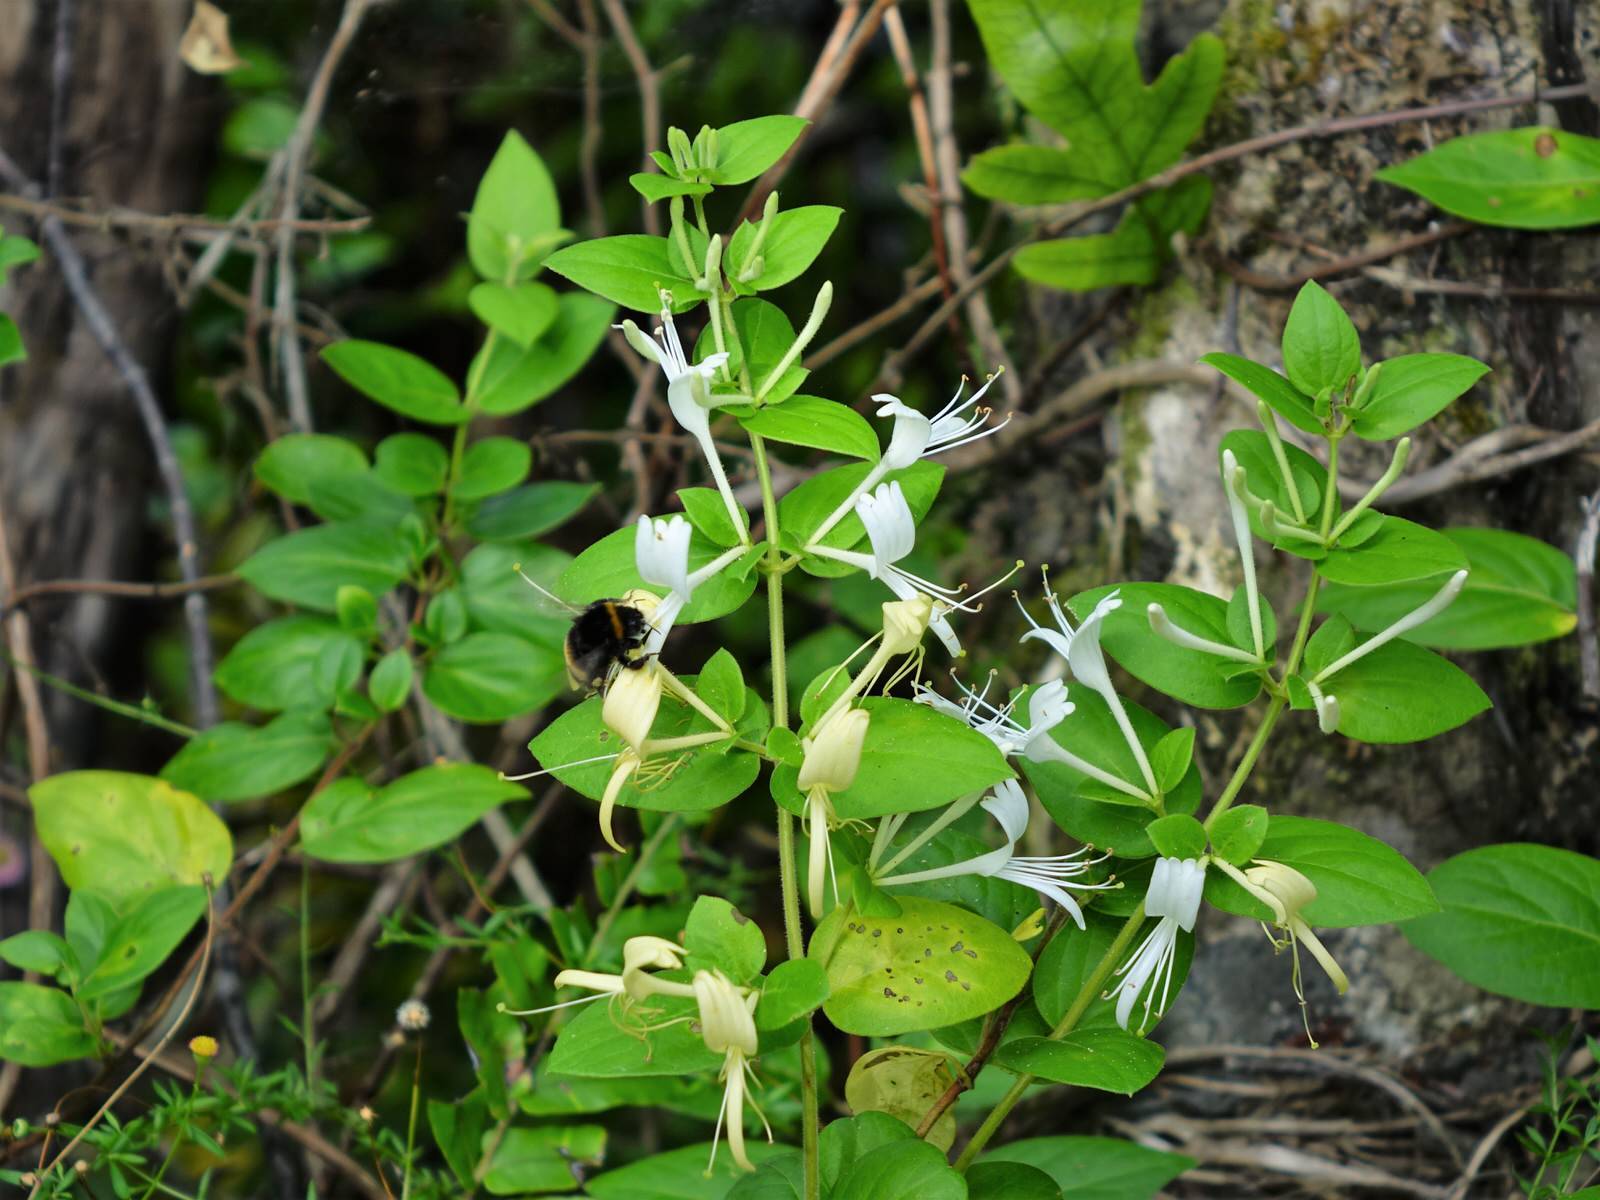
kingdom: Plantae
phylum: Tracheophyta
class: Magnoliopsida
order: Dipsacales
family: Caprifoliaceae
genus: Lonicera
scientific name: Lonicera japonica
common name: Japanese honeysuckle
